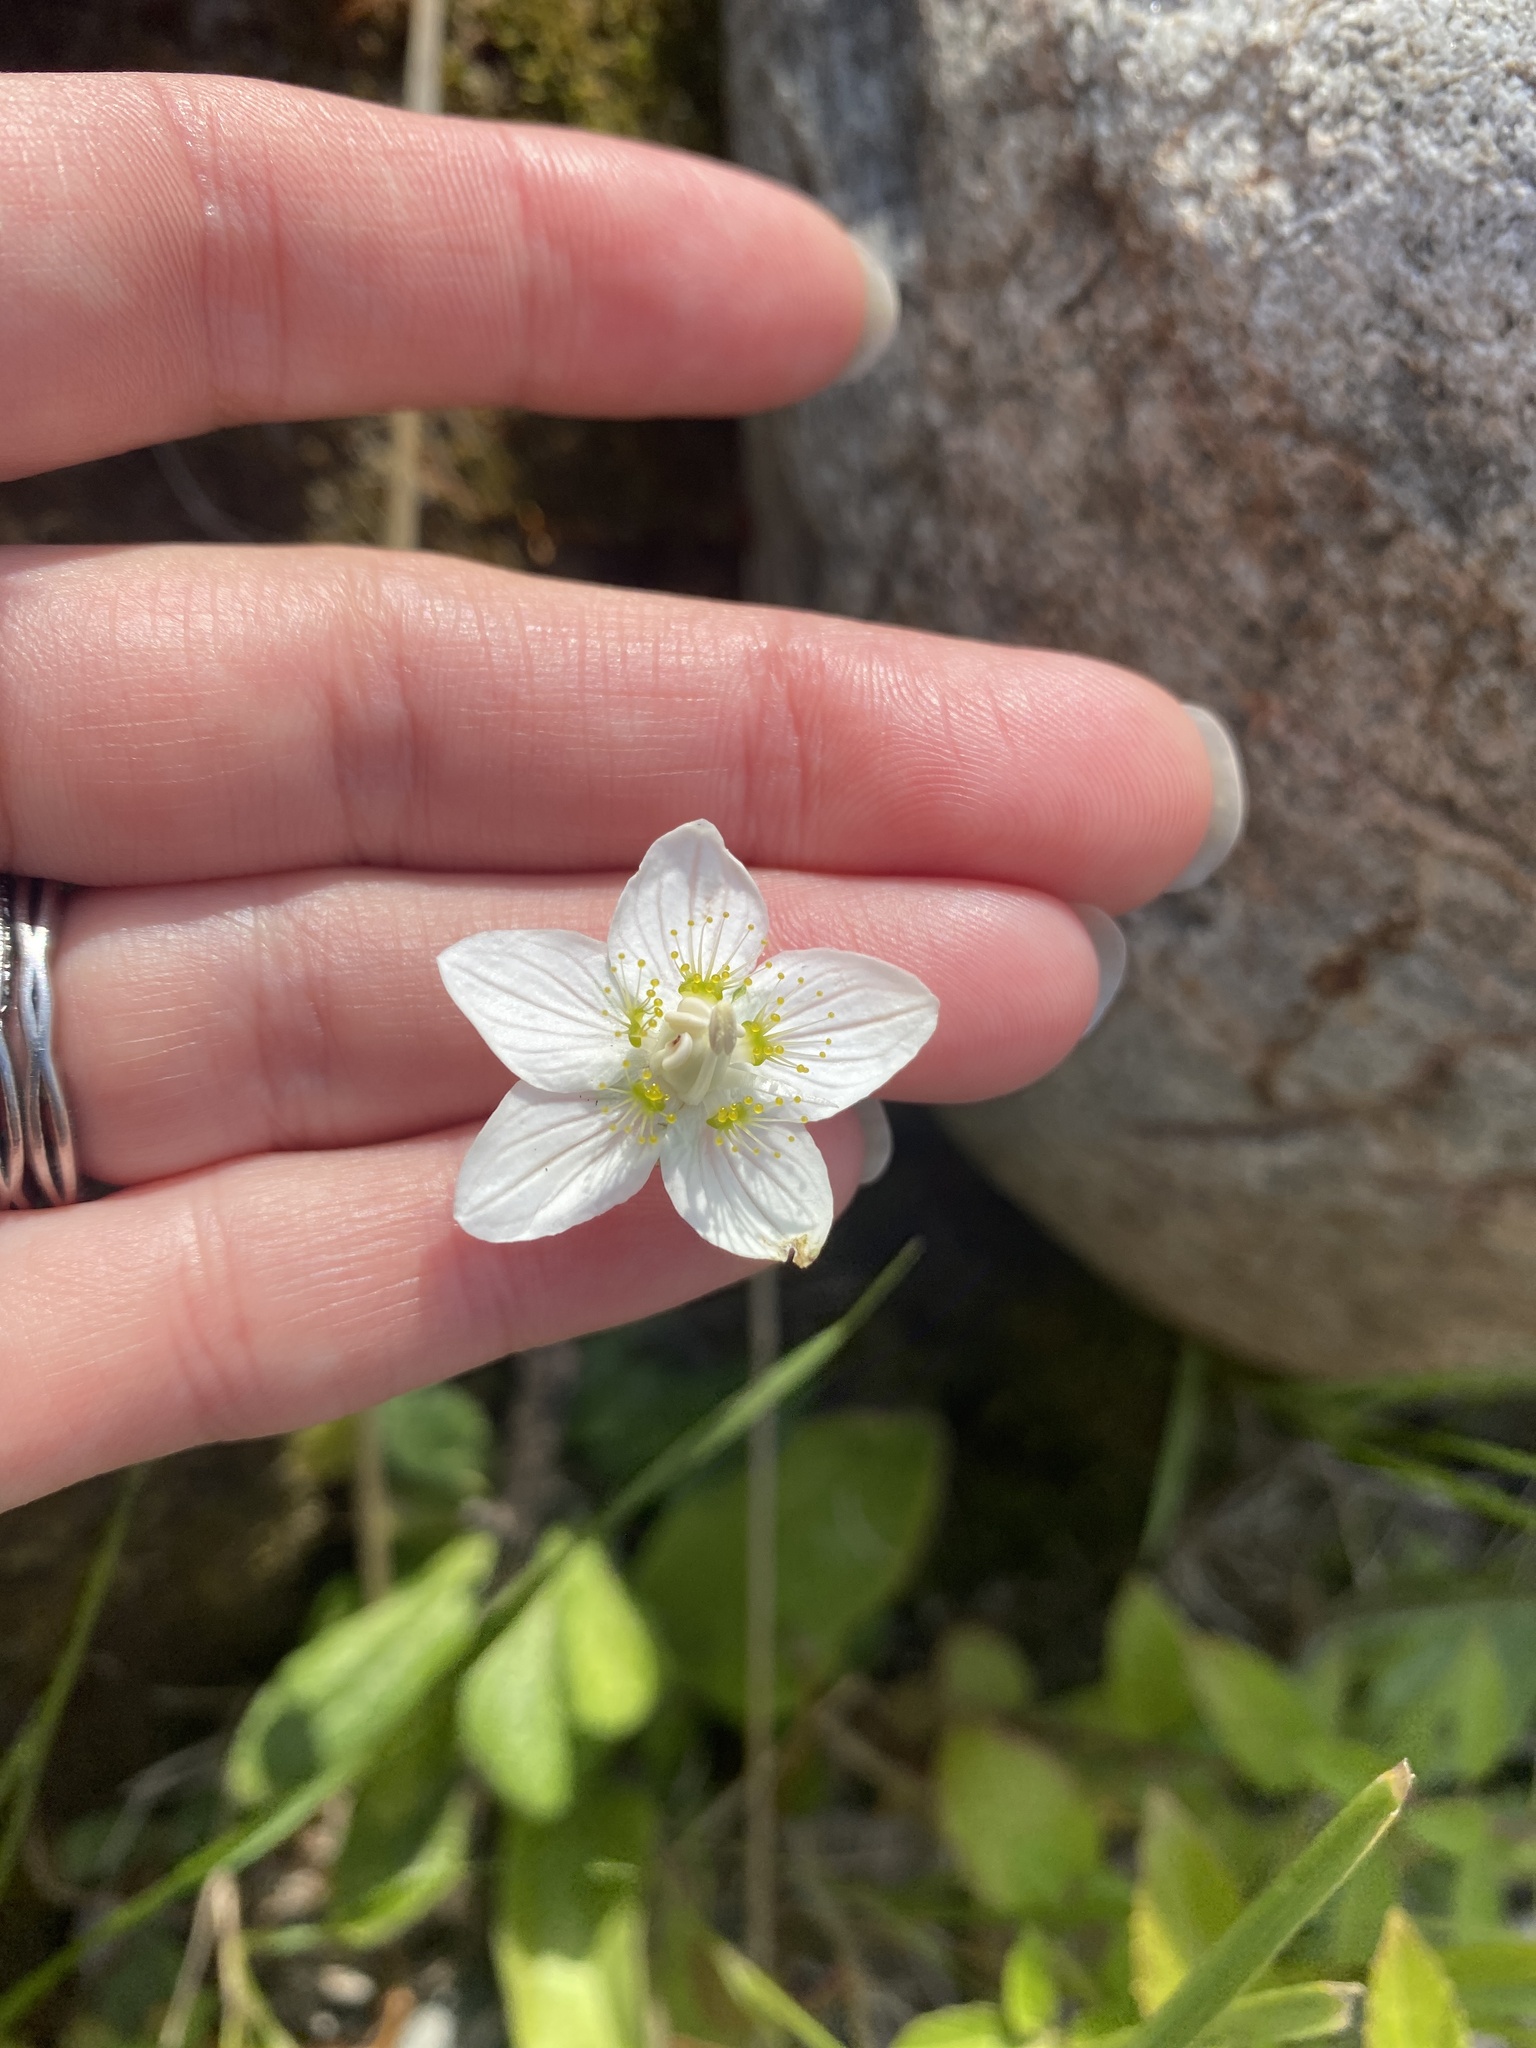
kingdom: Plantae
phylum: Tracheophyta
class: Magnoliopsida
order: Celastrales
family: Parnassiaceae
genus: Parnassia
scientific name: Parnassia palustris
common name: Grass-of-parnassus
